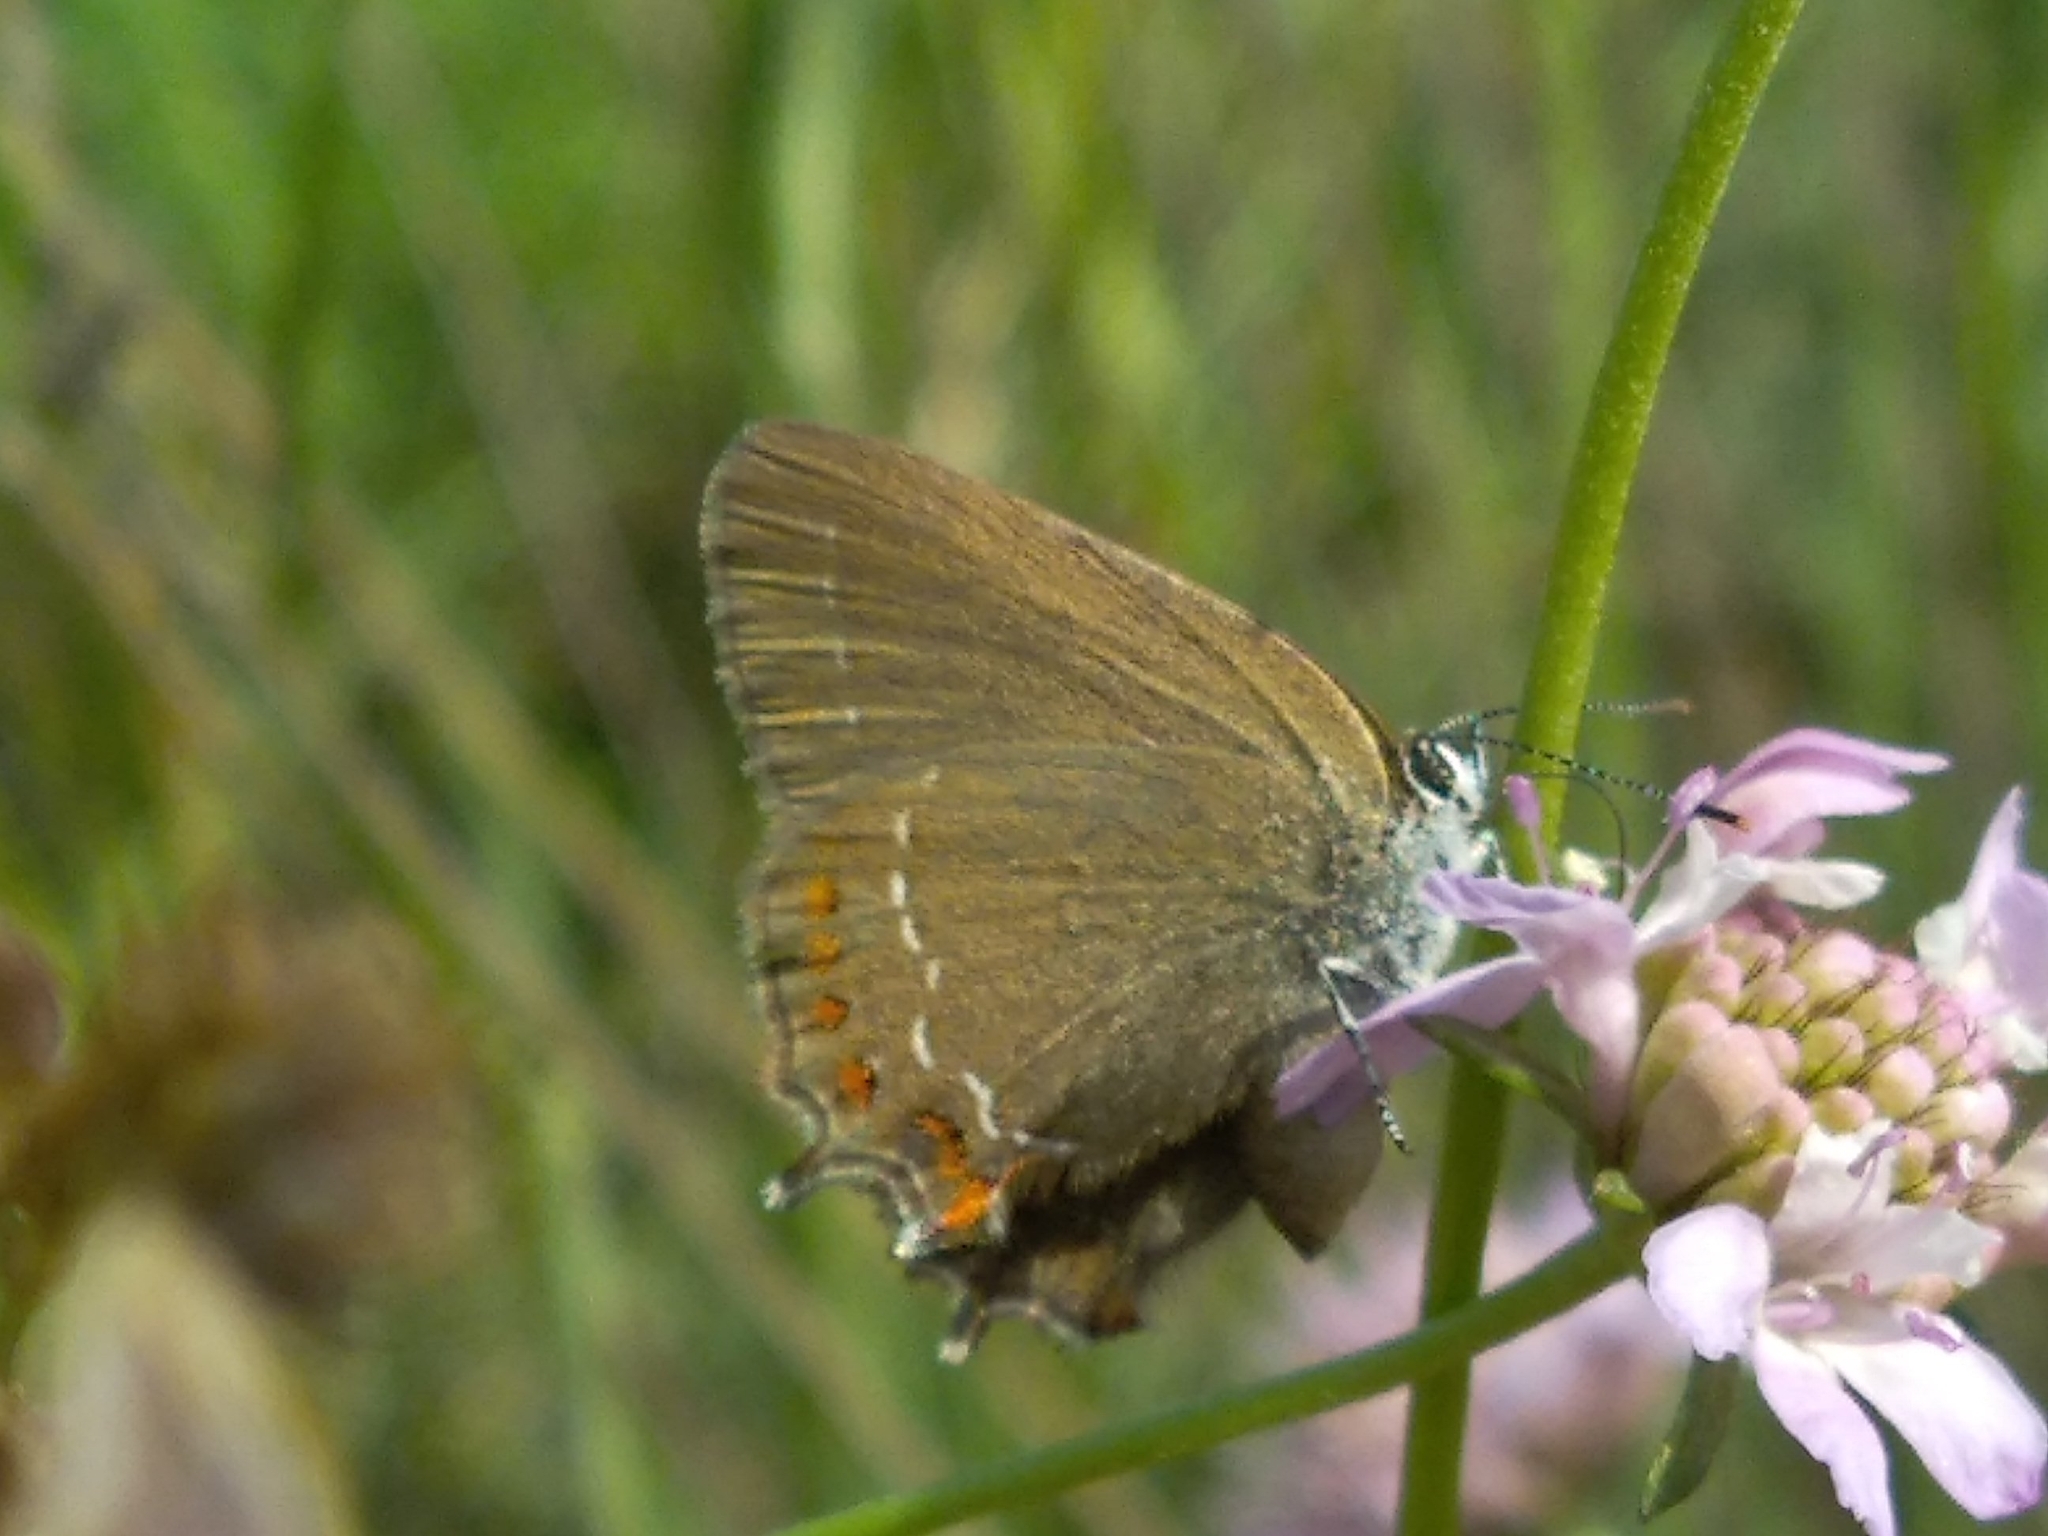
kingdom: Animalia
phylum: Arthropoda
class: Insecta
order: Lepidoptera
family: Lycaenidae
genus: Fixsenia
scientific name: Fixsenia esculi
